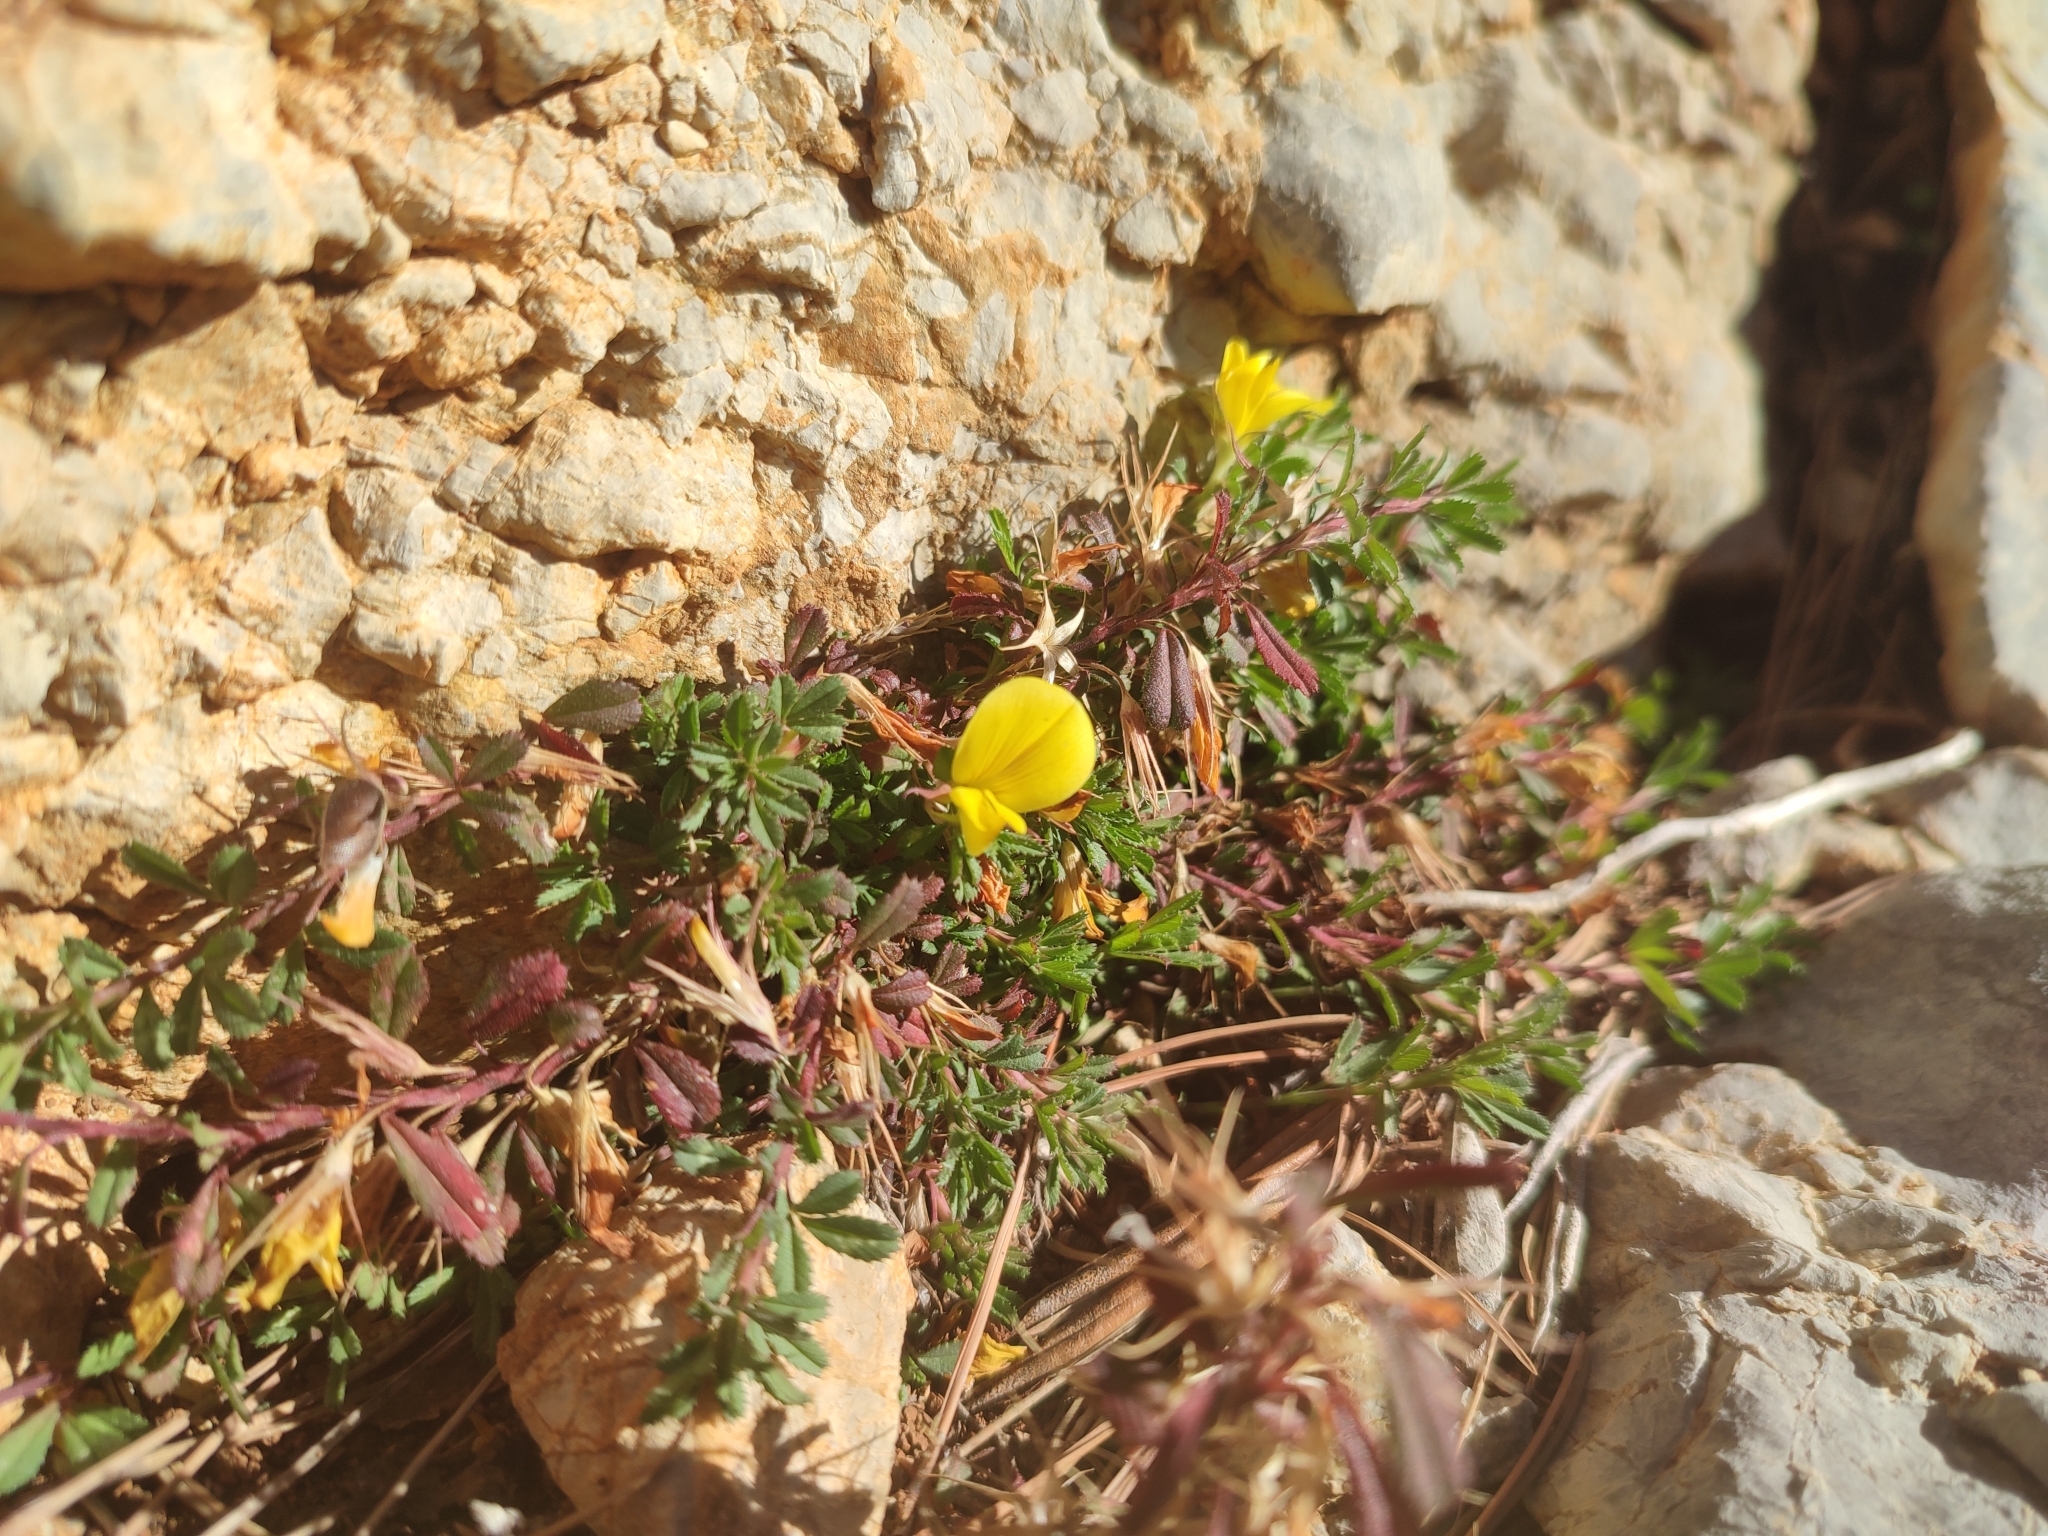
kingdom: Plantae
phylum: Tracheophyta
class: Magnoliopsida
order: Fabales
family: Fabaceae
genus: Ononis
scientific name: Ononis minutissima
